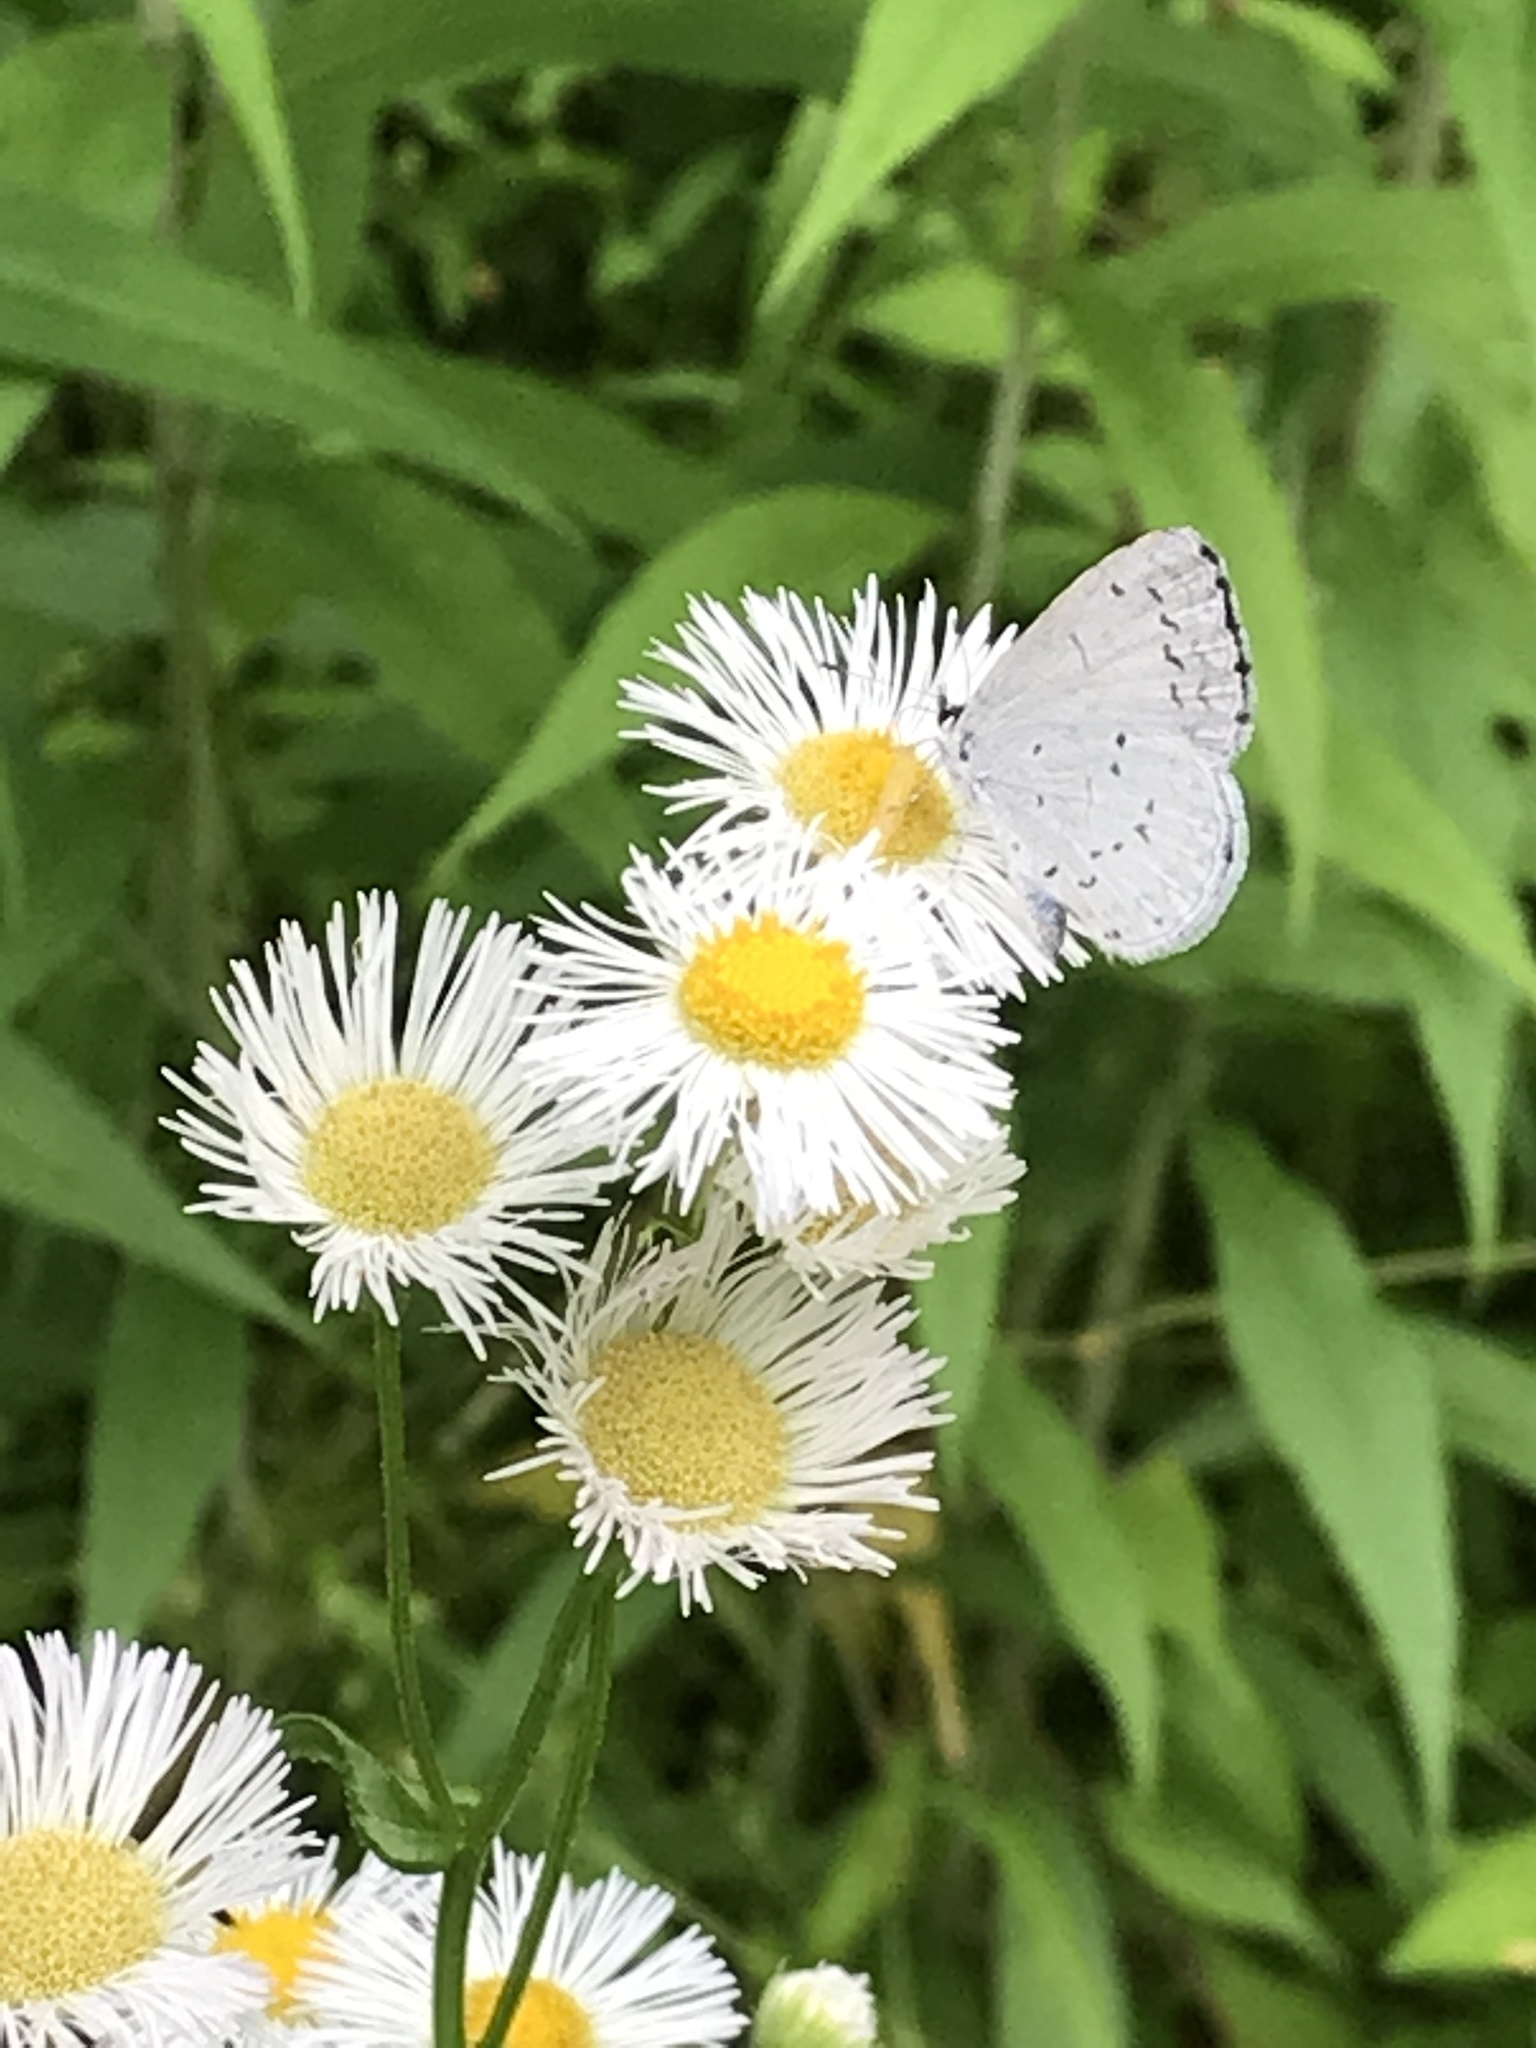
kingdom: Animalia
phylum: Arthropoda
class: Insecta
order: Lepidoptera
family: Lycaenidae
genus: Cyaniris
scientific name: Cyaniris neglecta
